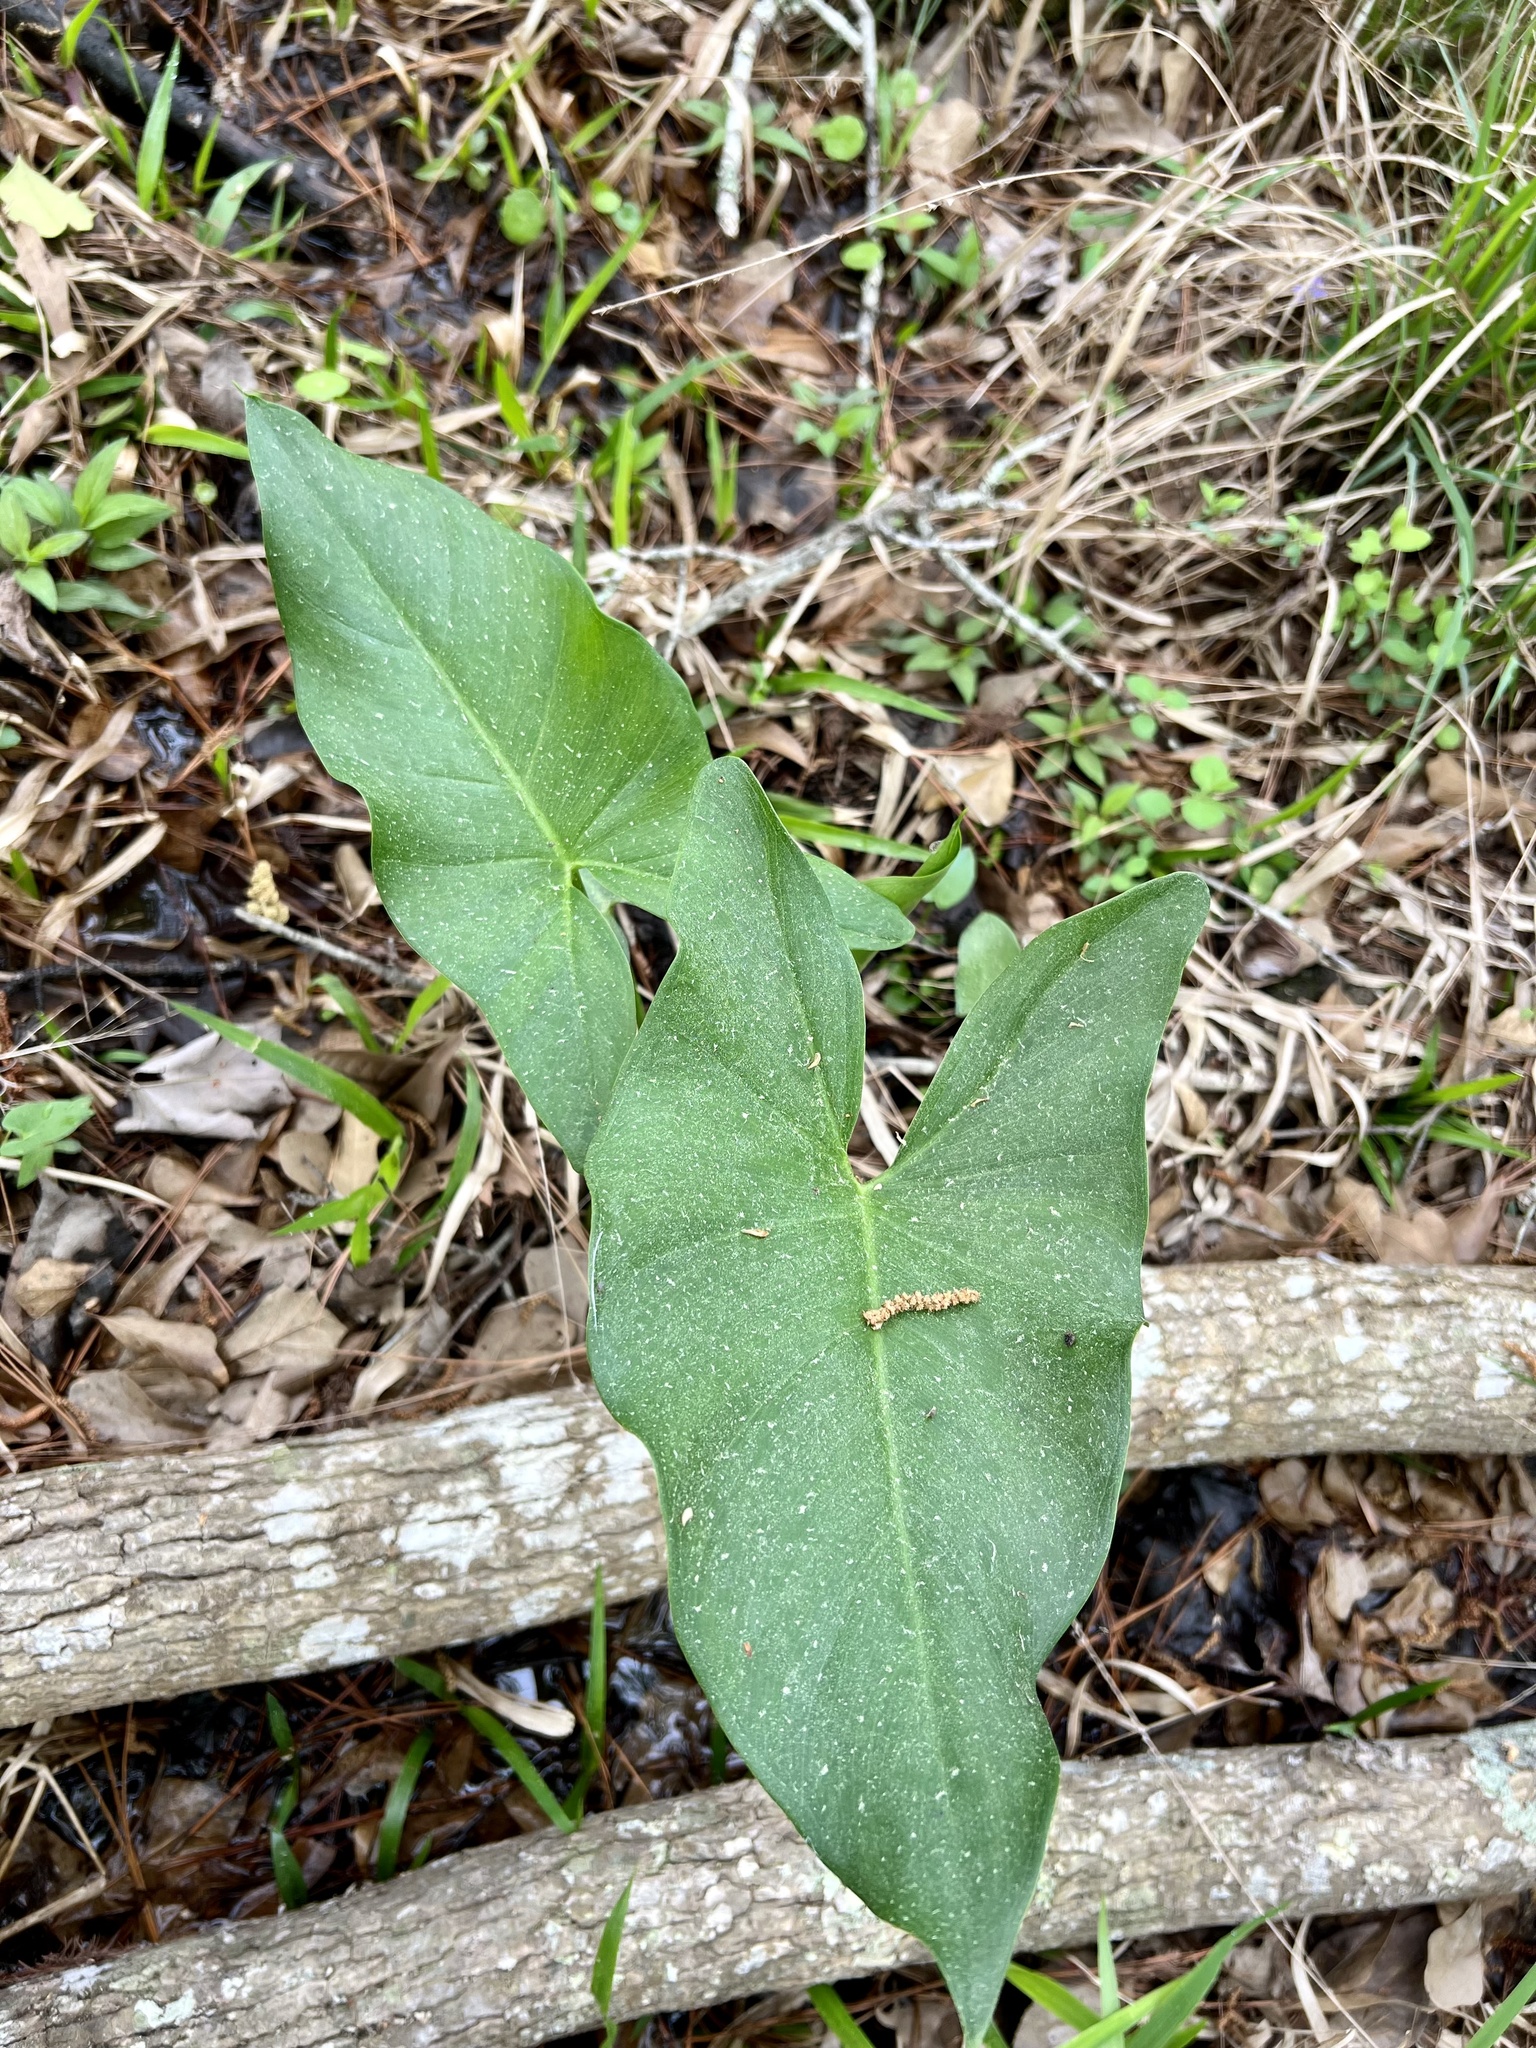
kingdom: Plantae
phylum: Tracheophyta
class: Liliopsida
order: Alismatales
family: Araceae
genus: Peltandra
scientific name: Peltandra virginica
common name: Arrow arum
